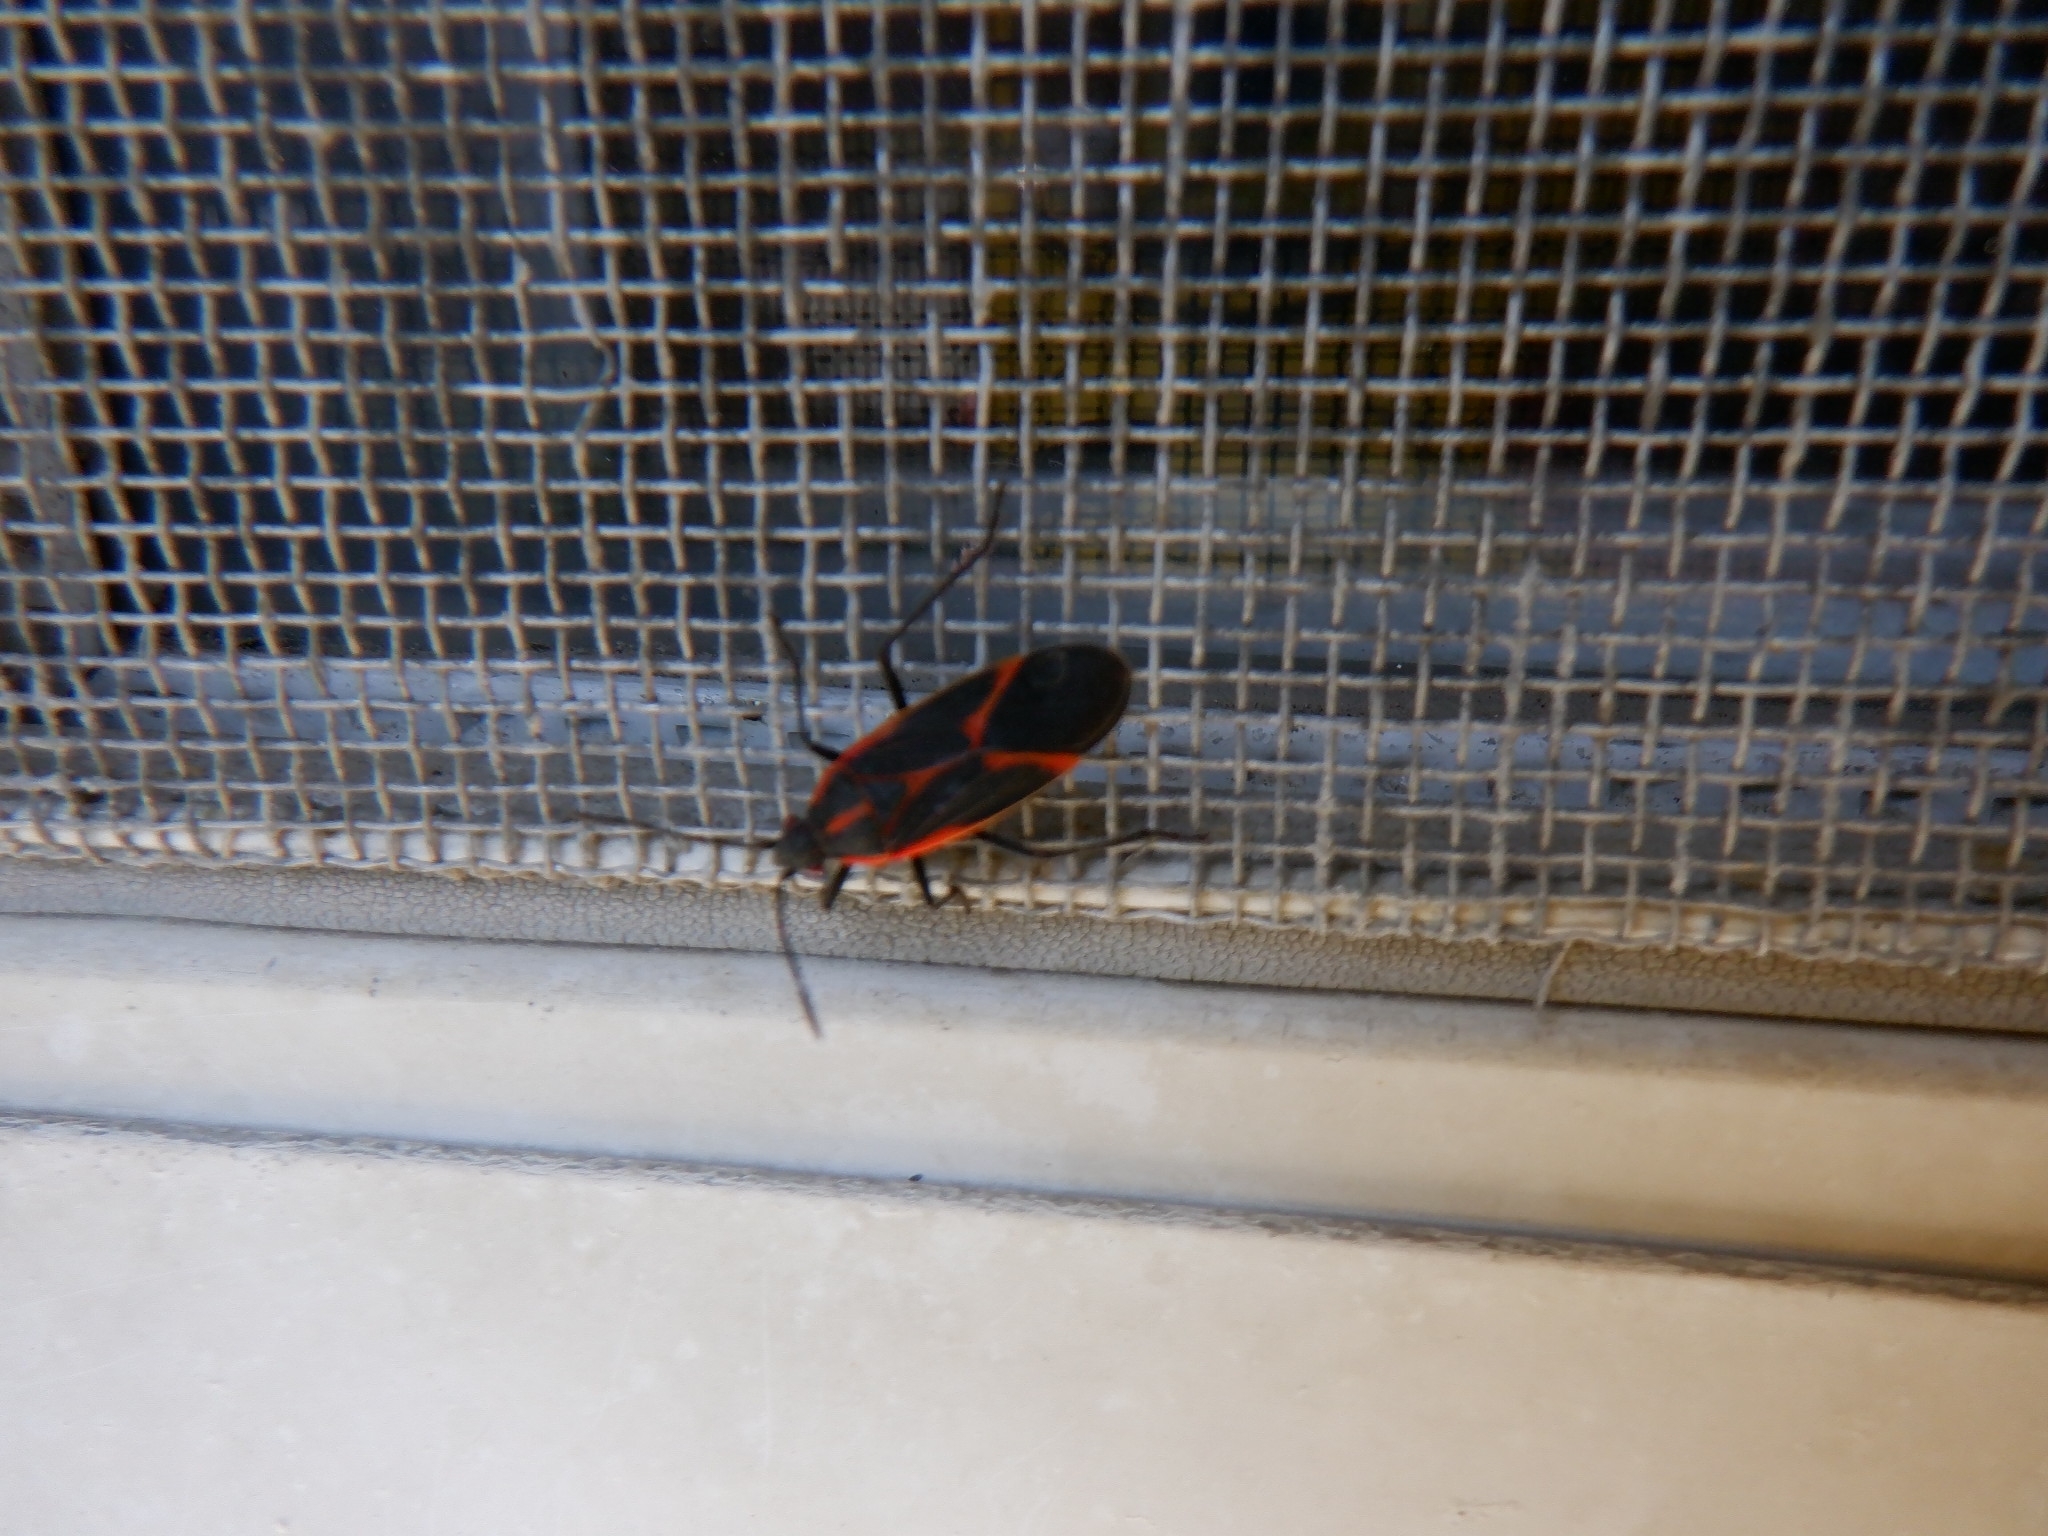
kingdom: Animalia
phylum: Arthropoda
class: Insecta
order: Hemiptera
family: Rhopalidae
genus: Boisea
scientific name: Boisea trivittata
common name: Boxelder bug
